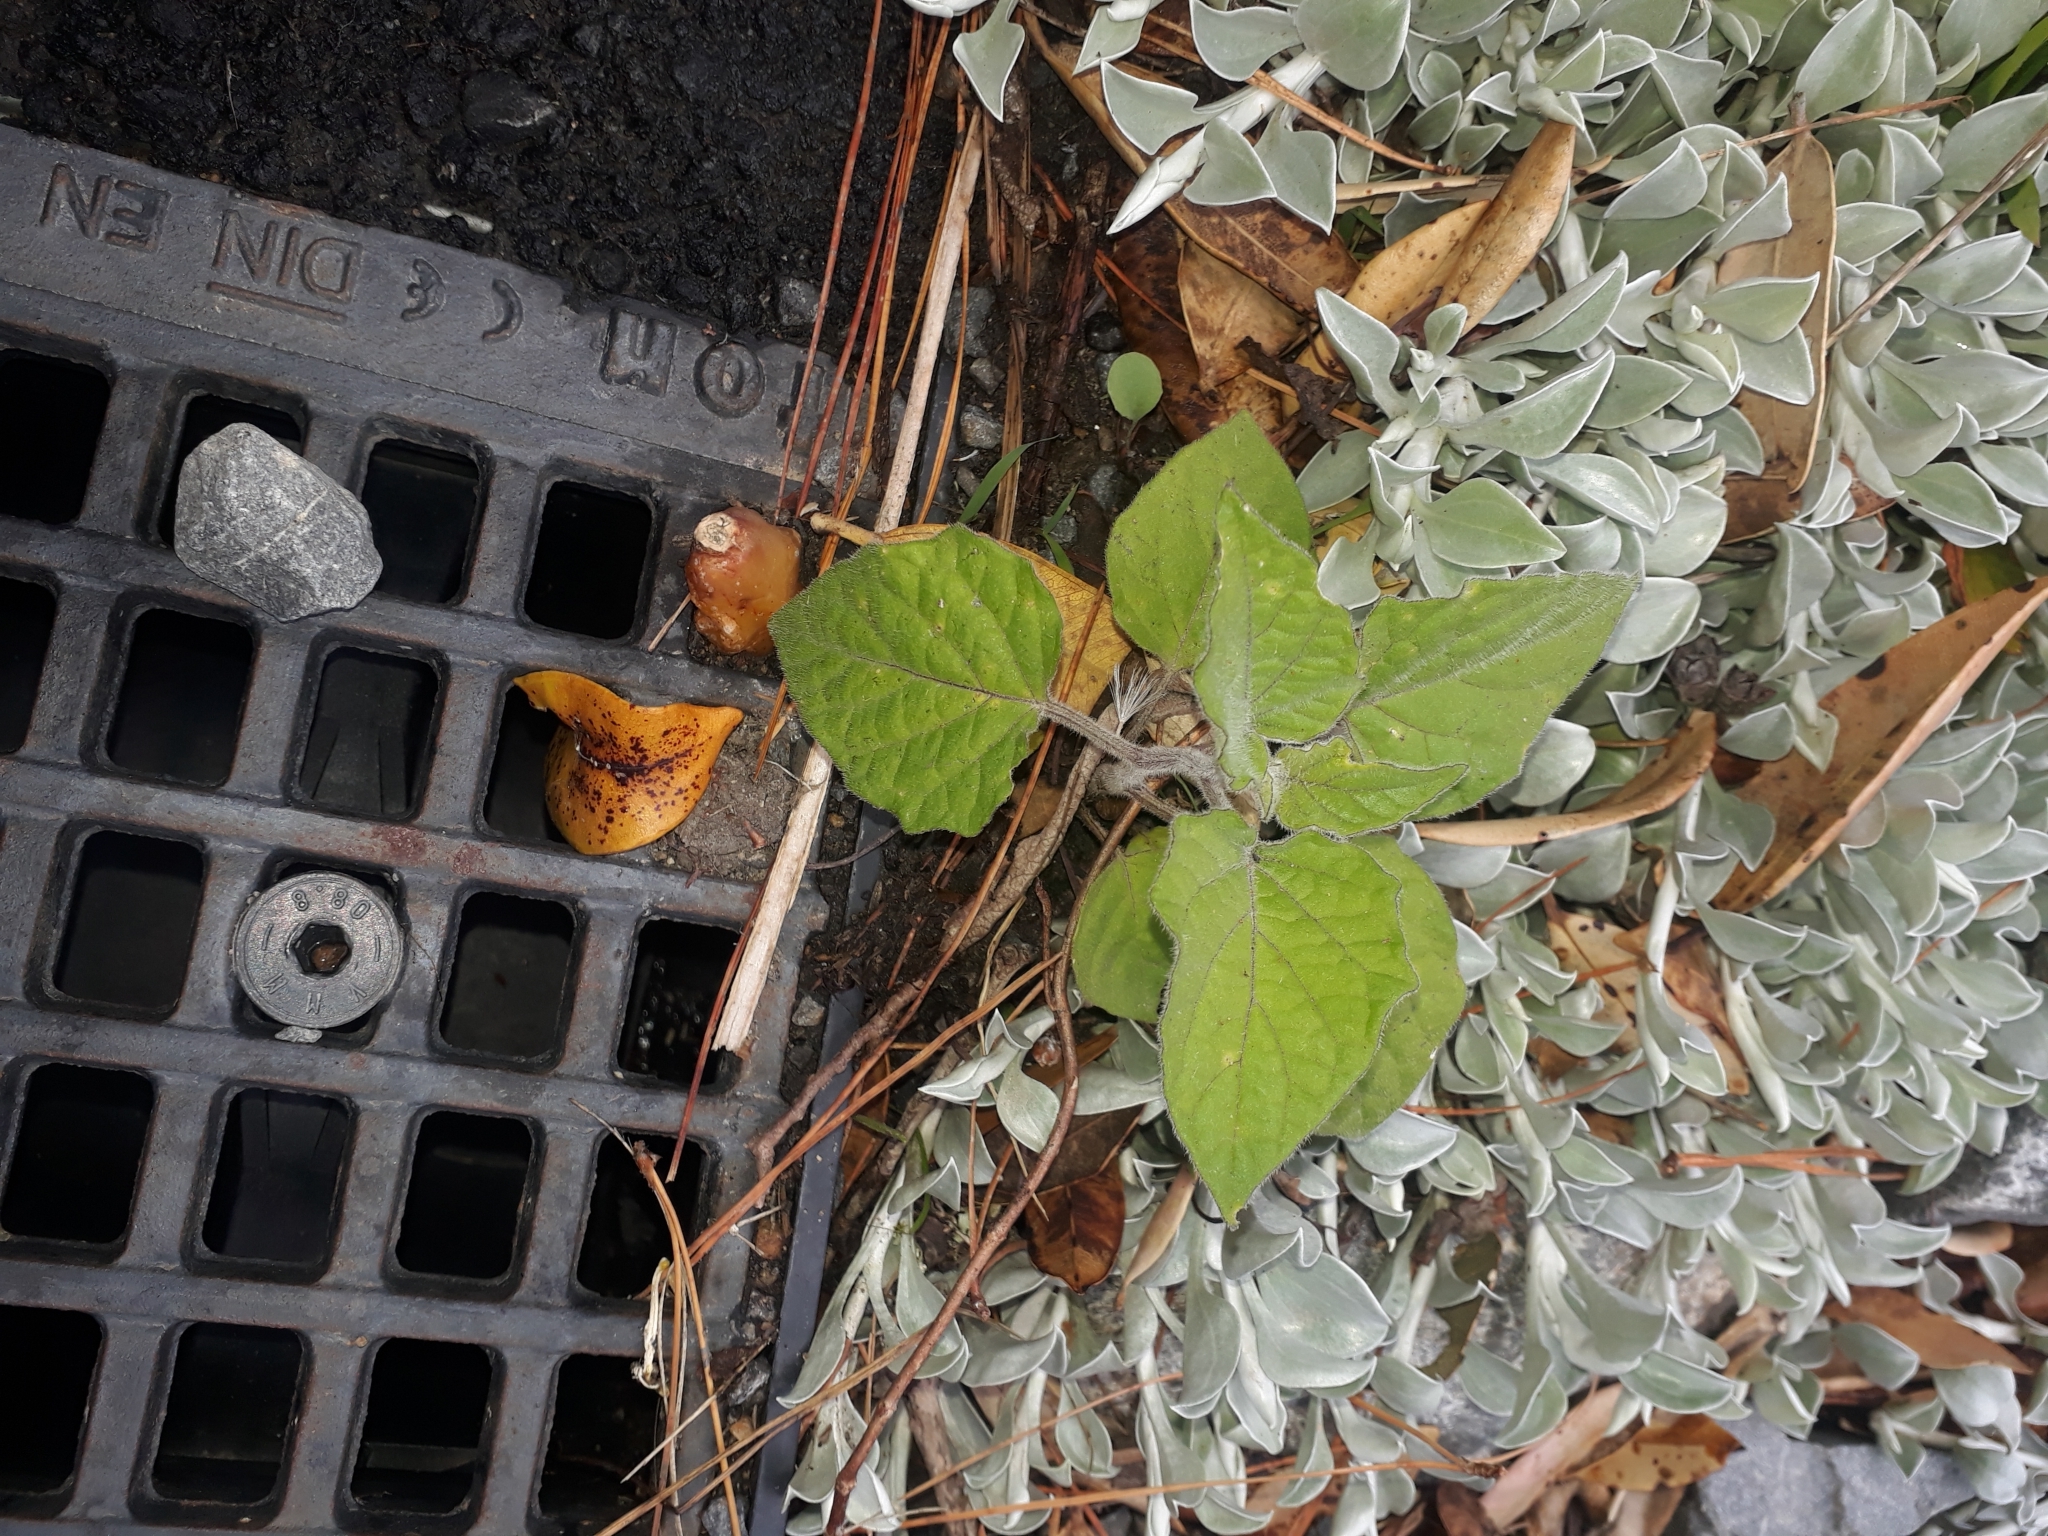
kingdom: Plantae
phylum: Tracheophyta
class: Magnoliopsida
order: Solanales
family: Solanaceae
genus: Physalis
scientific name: Physalis peruviana
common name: Cape-gooseberry
